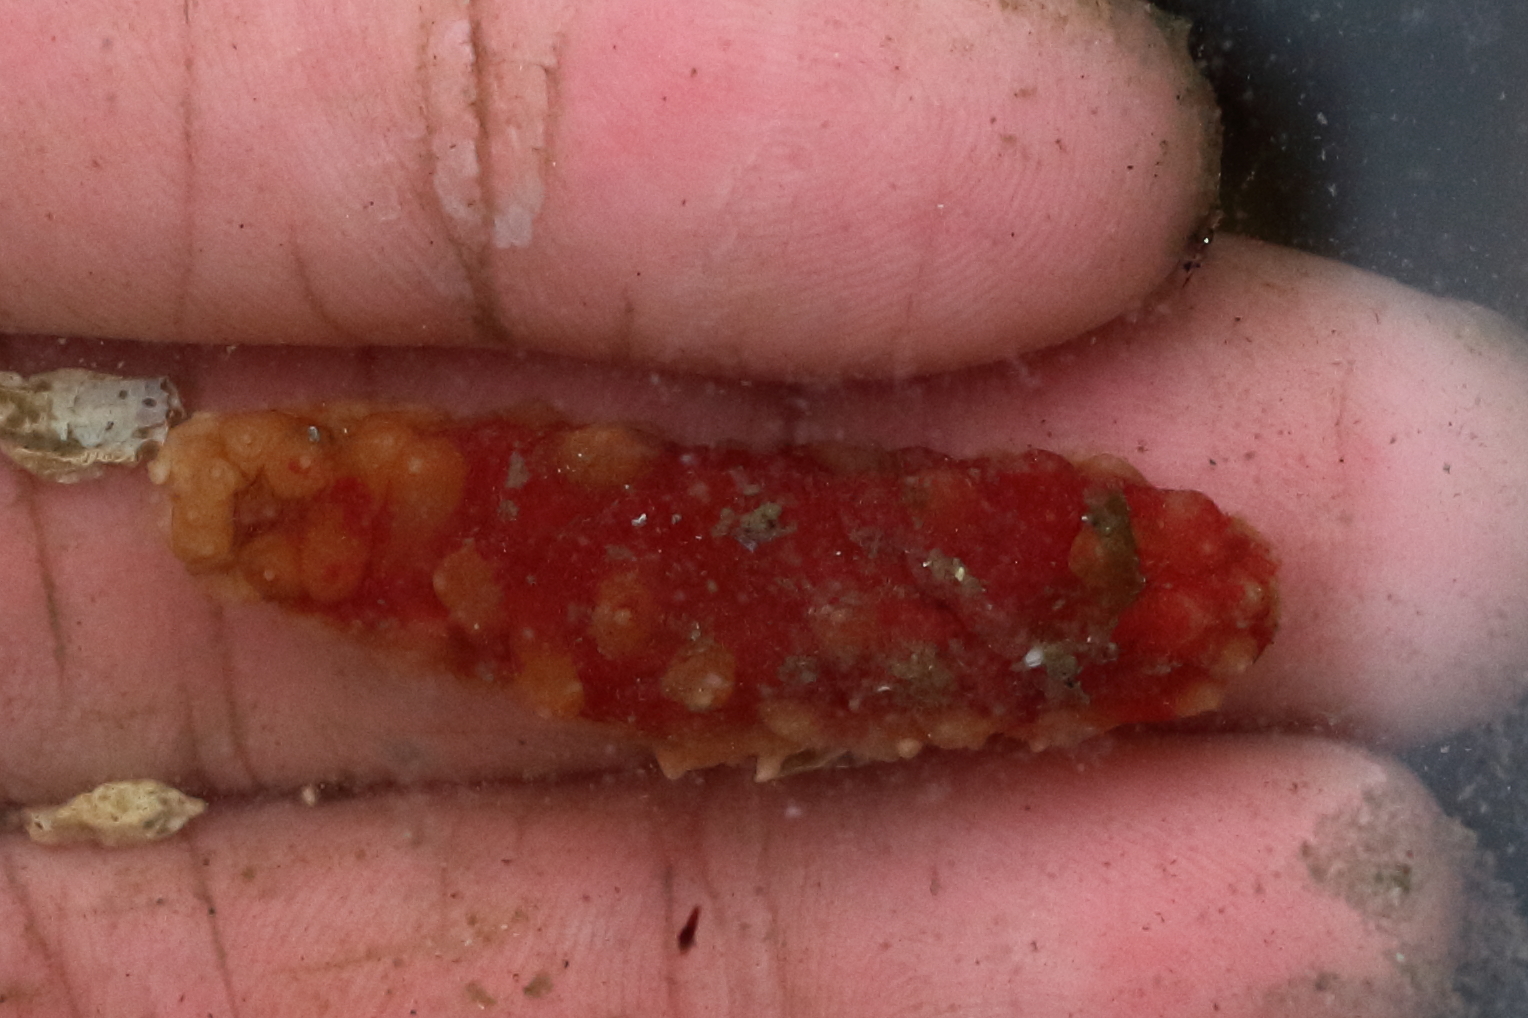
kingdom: Animalia
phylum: Echinodermata
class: Holothuroidea
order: Synallactida
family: Stichopodidae
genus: Apostichopus
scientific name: Apostichopus californicus
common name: California sea cucumber
